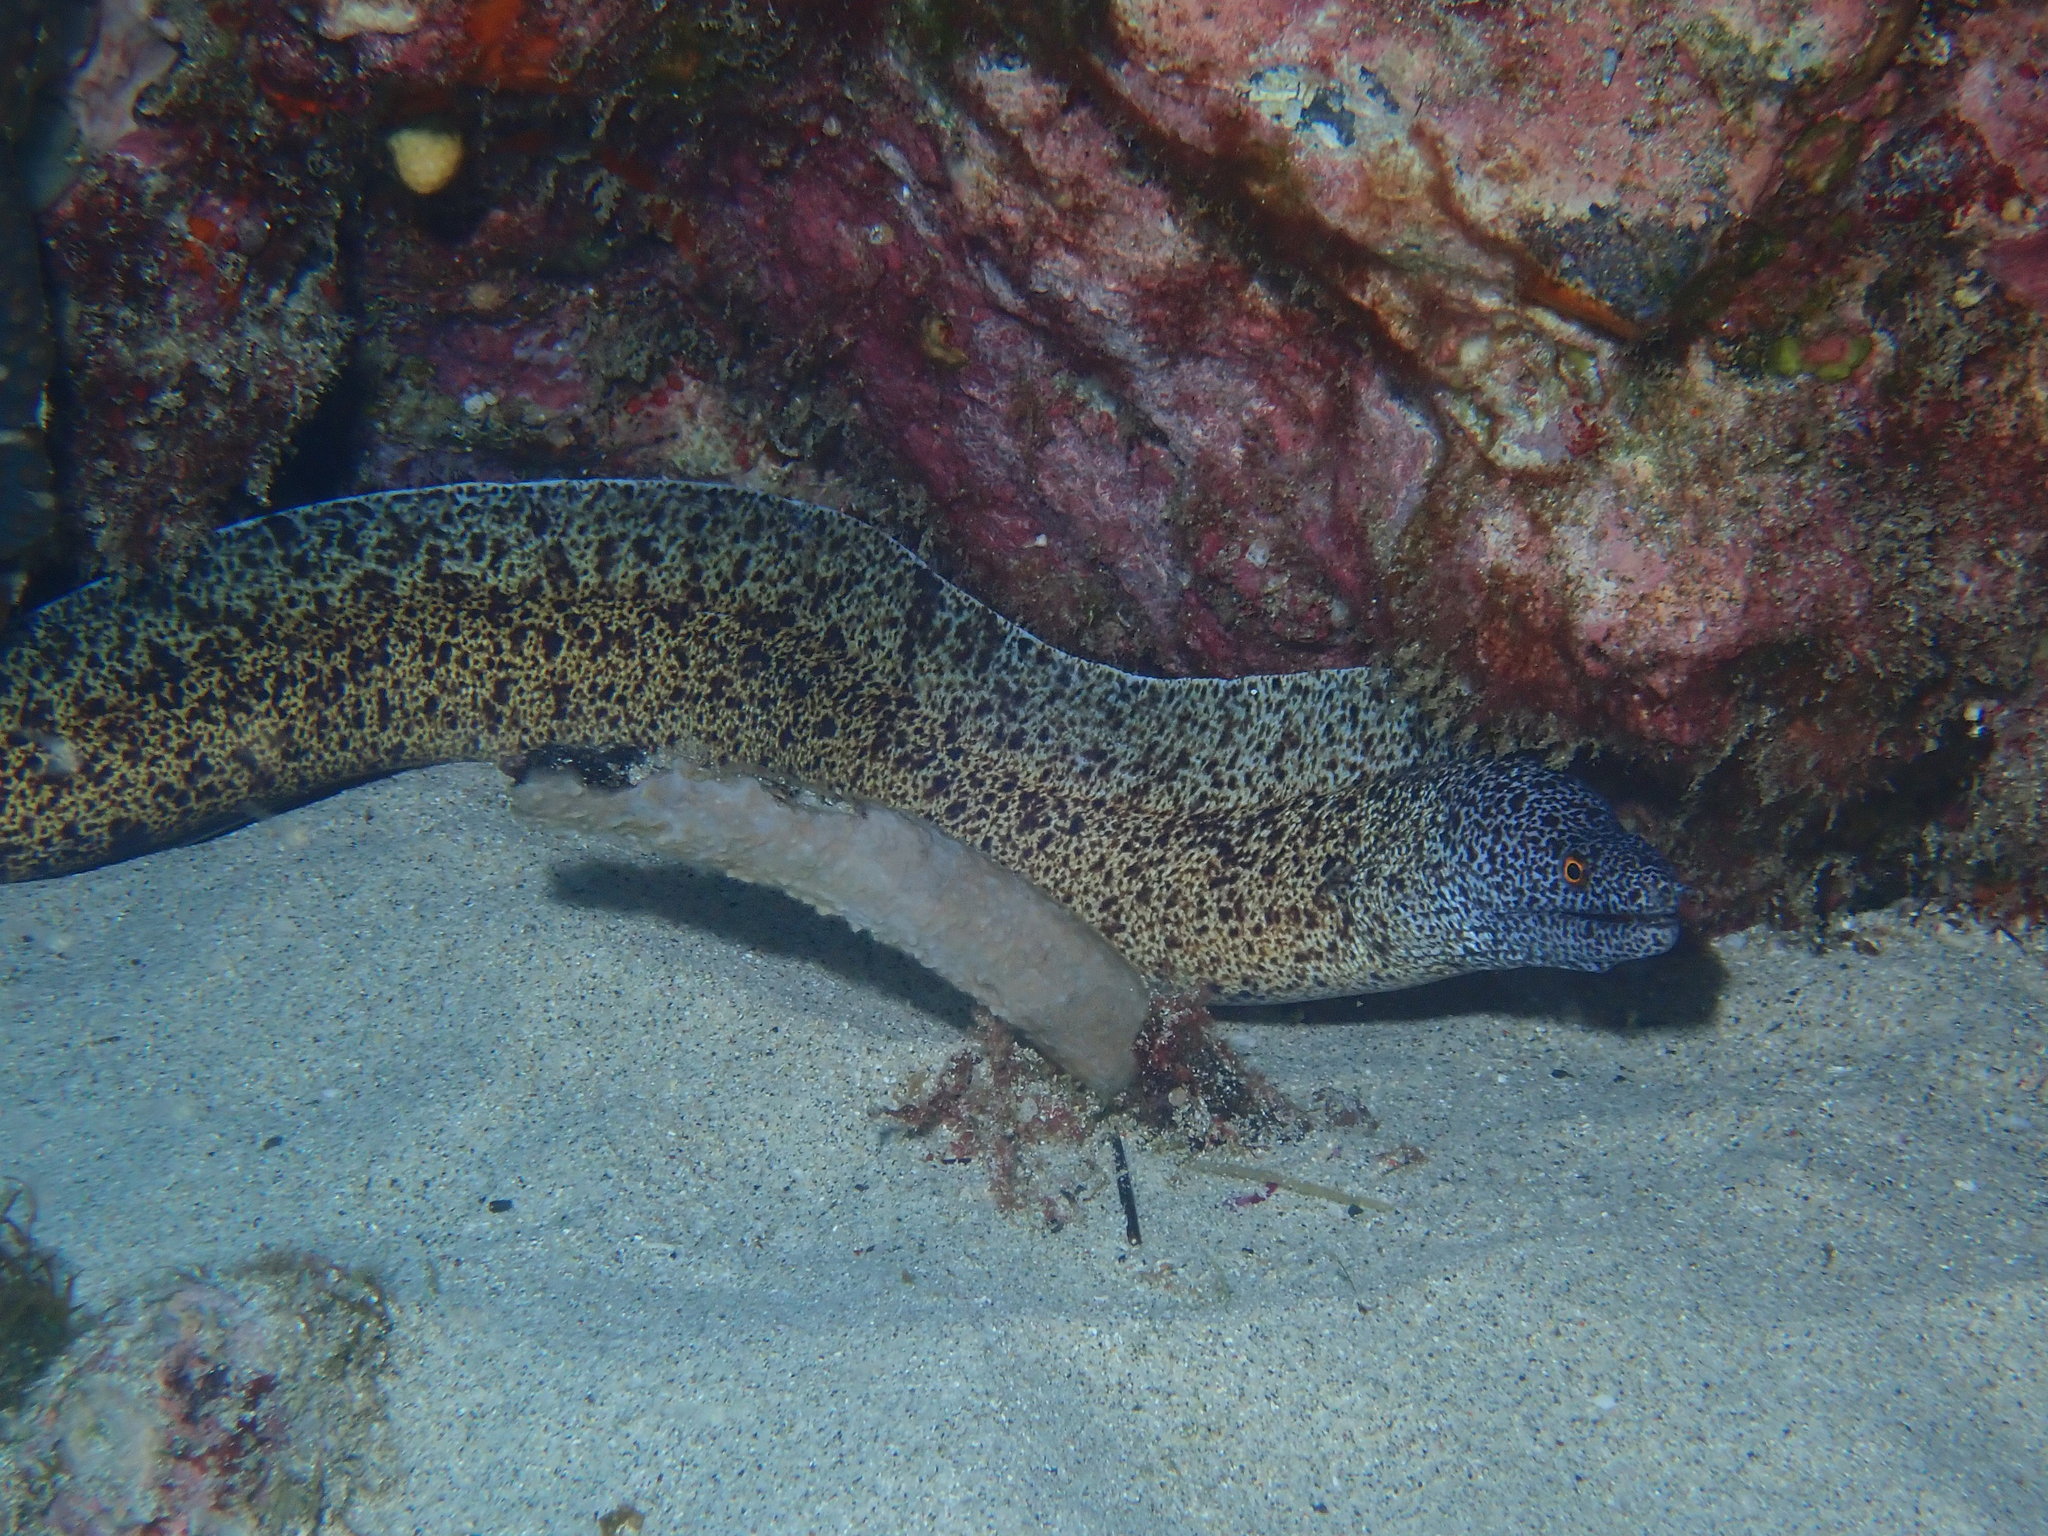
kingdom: Animalia
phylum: Chordata
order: Anguilliformes
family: Muraenidae
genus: Gymnothorax
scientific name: Gymnothorax annasona
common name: Lord howe island moray
